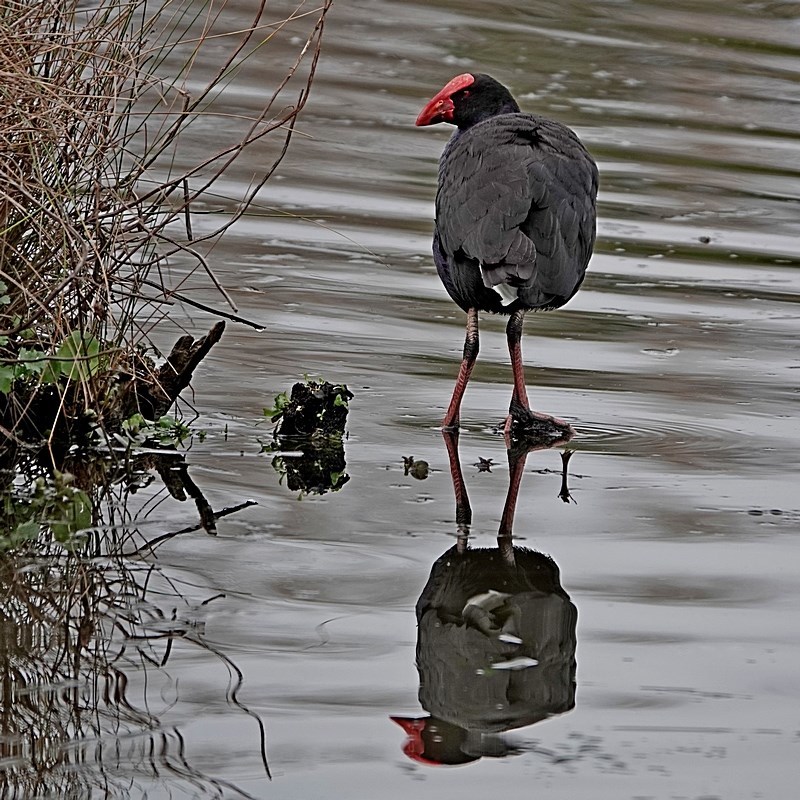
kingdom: Animalia
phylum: Chordata
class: Aves
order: Gruiformes
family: Rallidae
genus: Porphyrio
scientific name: Porphyrio melanotus
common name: Australasian swamphen
